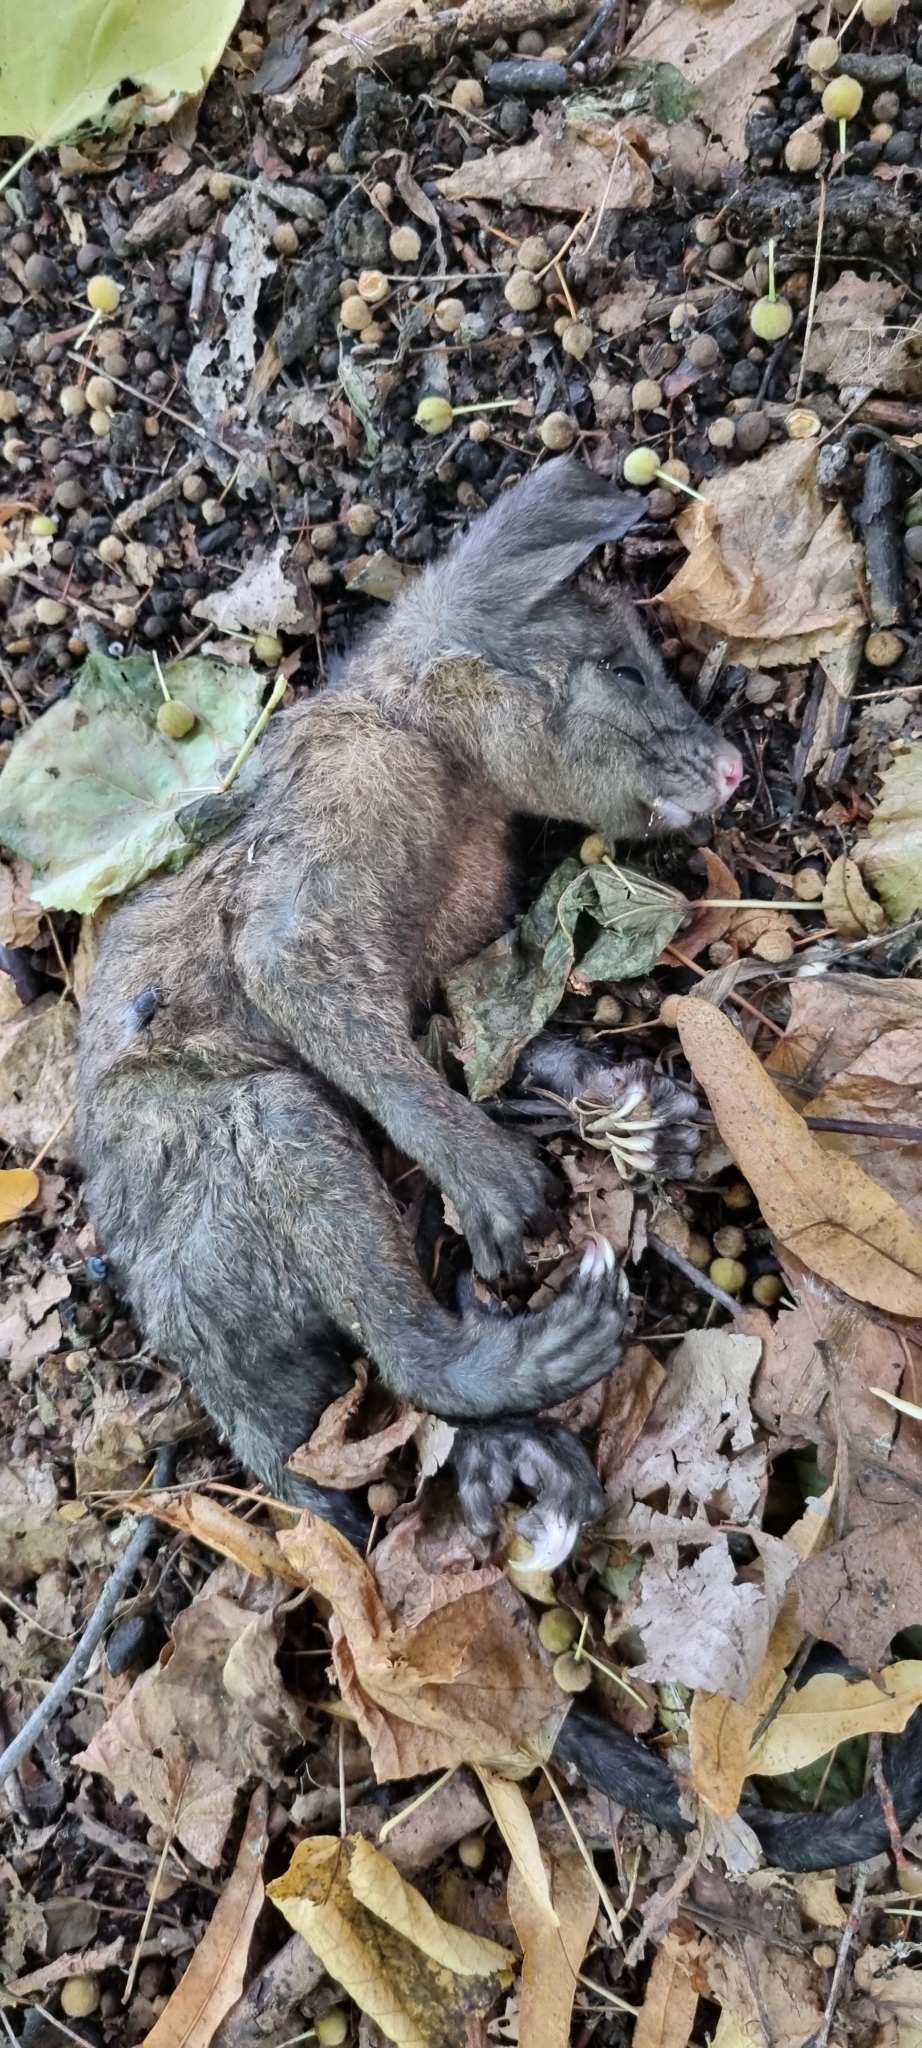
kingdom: Animalia
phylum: Chordata
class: Mammalia
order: Diprotodontia
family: Phalangeridae
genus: Trichosurus
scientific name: Trichosurus vulpecula
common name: Common brushtail
